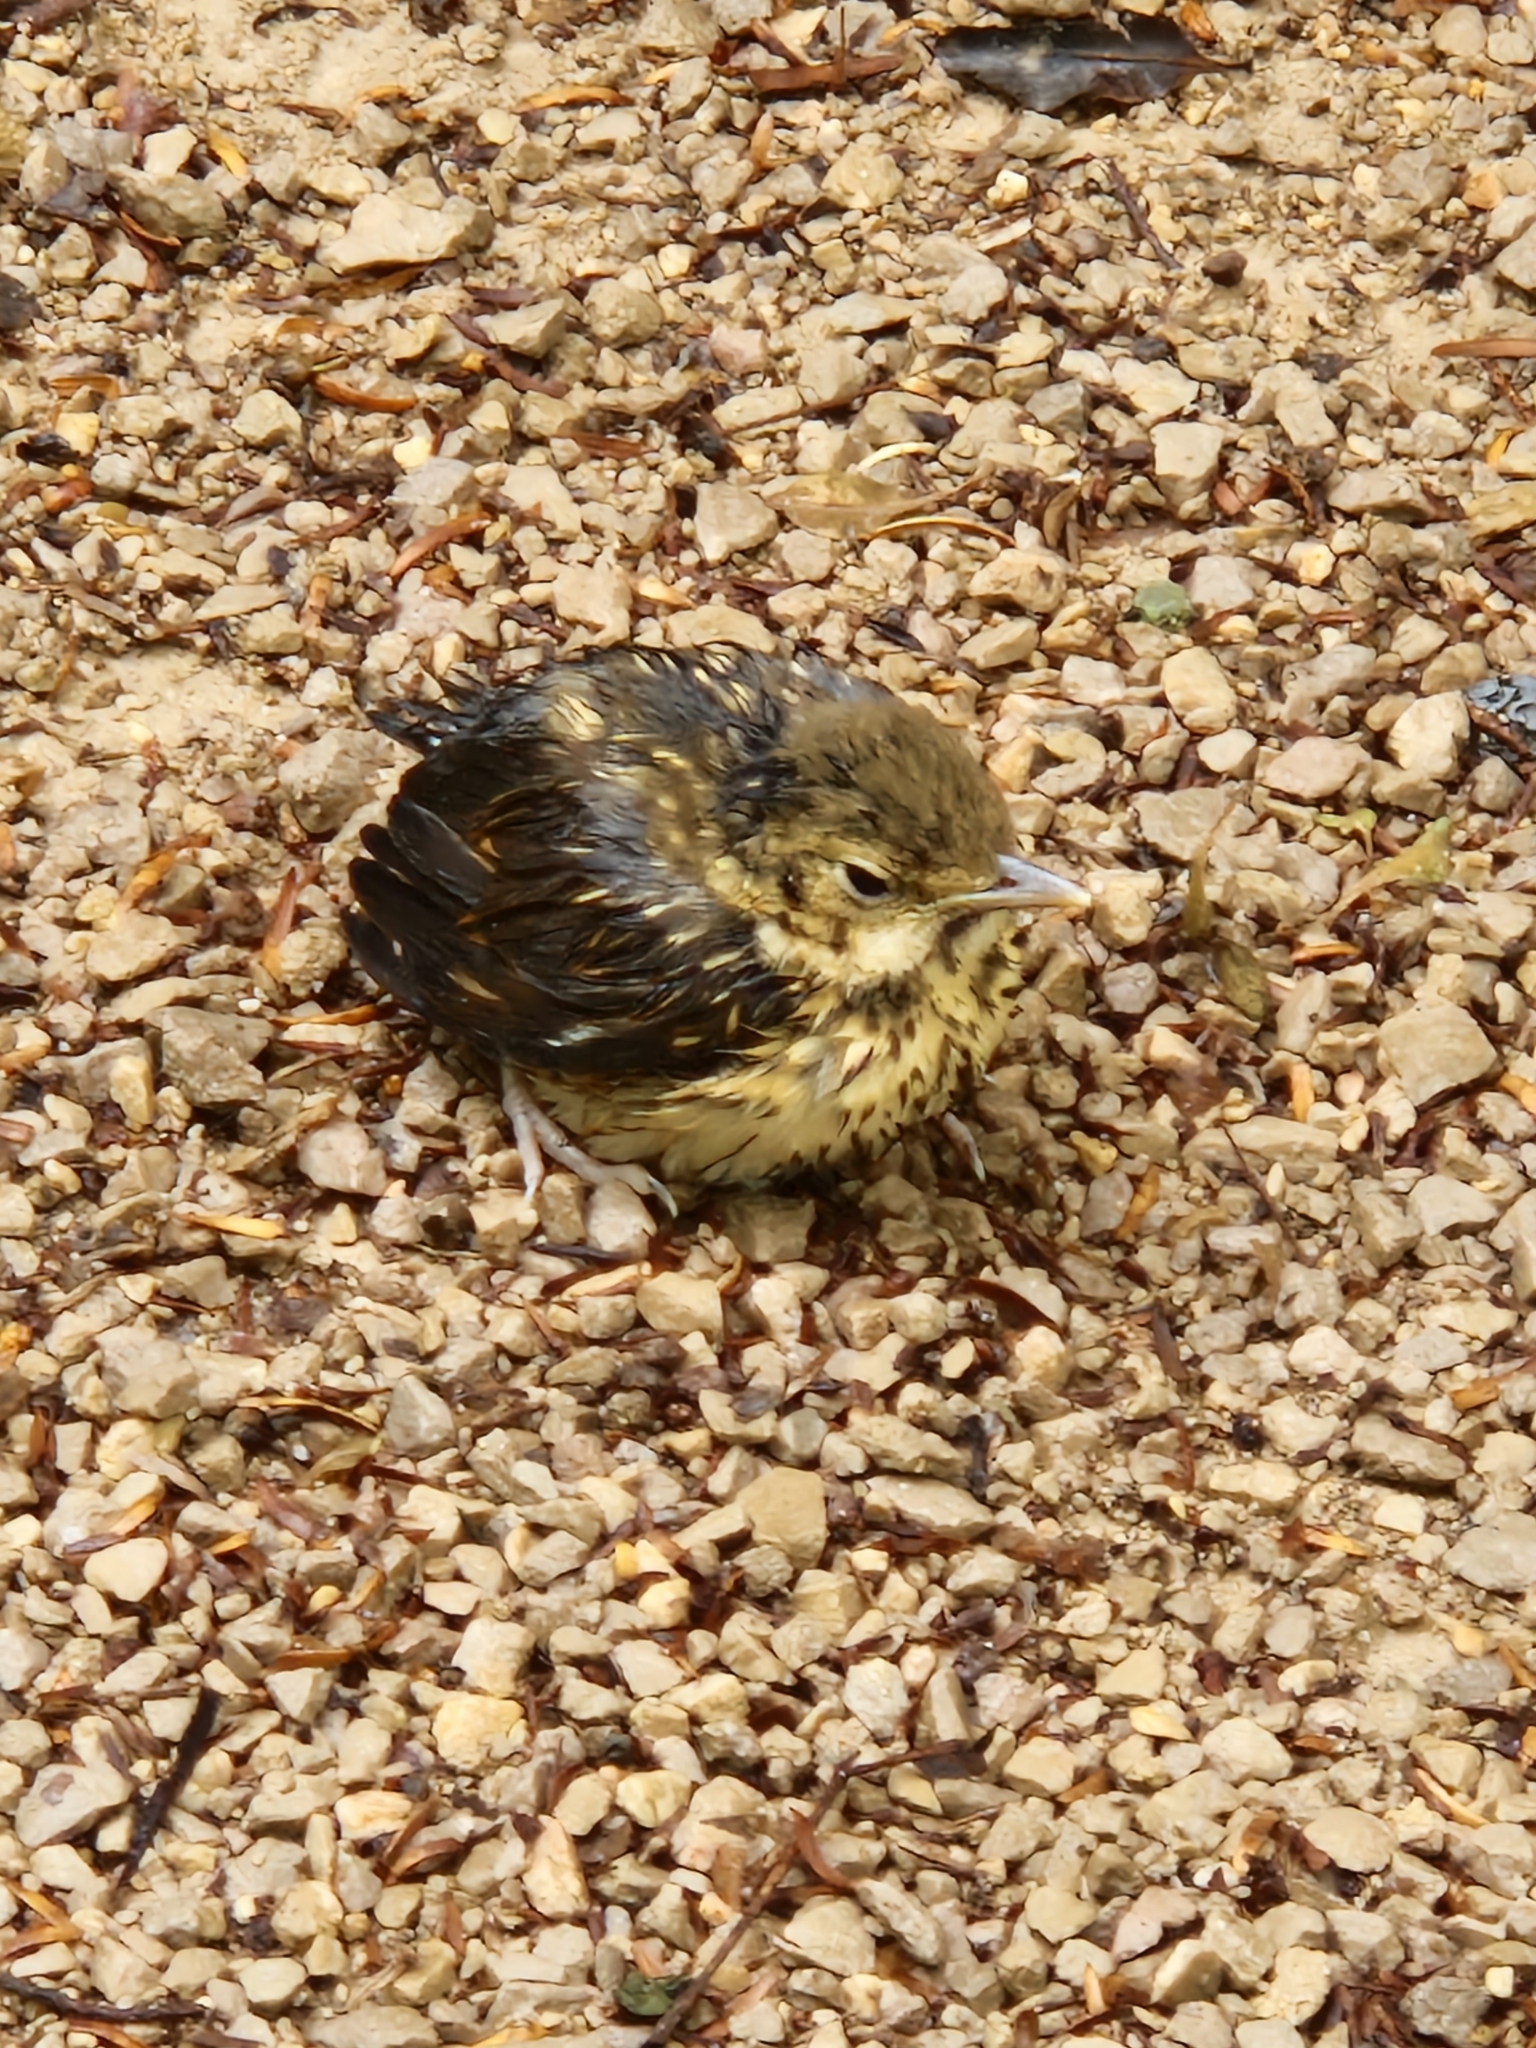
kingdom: Animalia
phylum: Chordata
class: Aves
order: Passeriformes
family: Turdidae
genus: Turdus
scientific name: Turdus philomelos
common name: Song thrush
